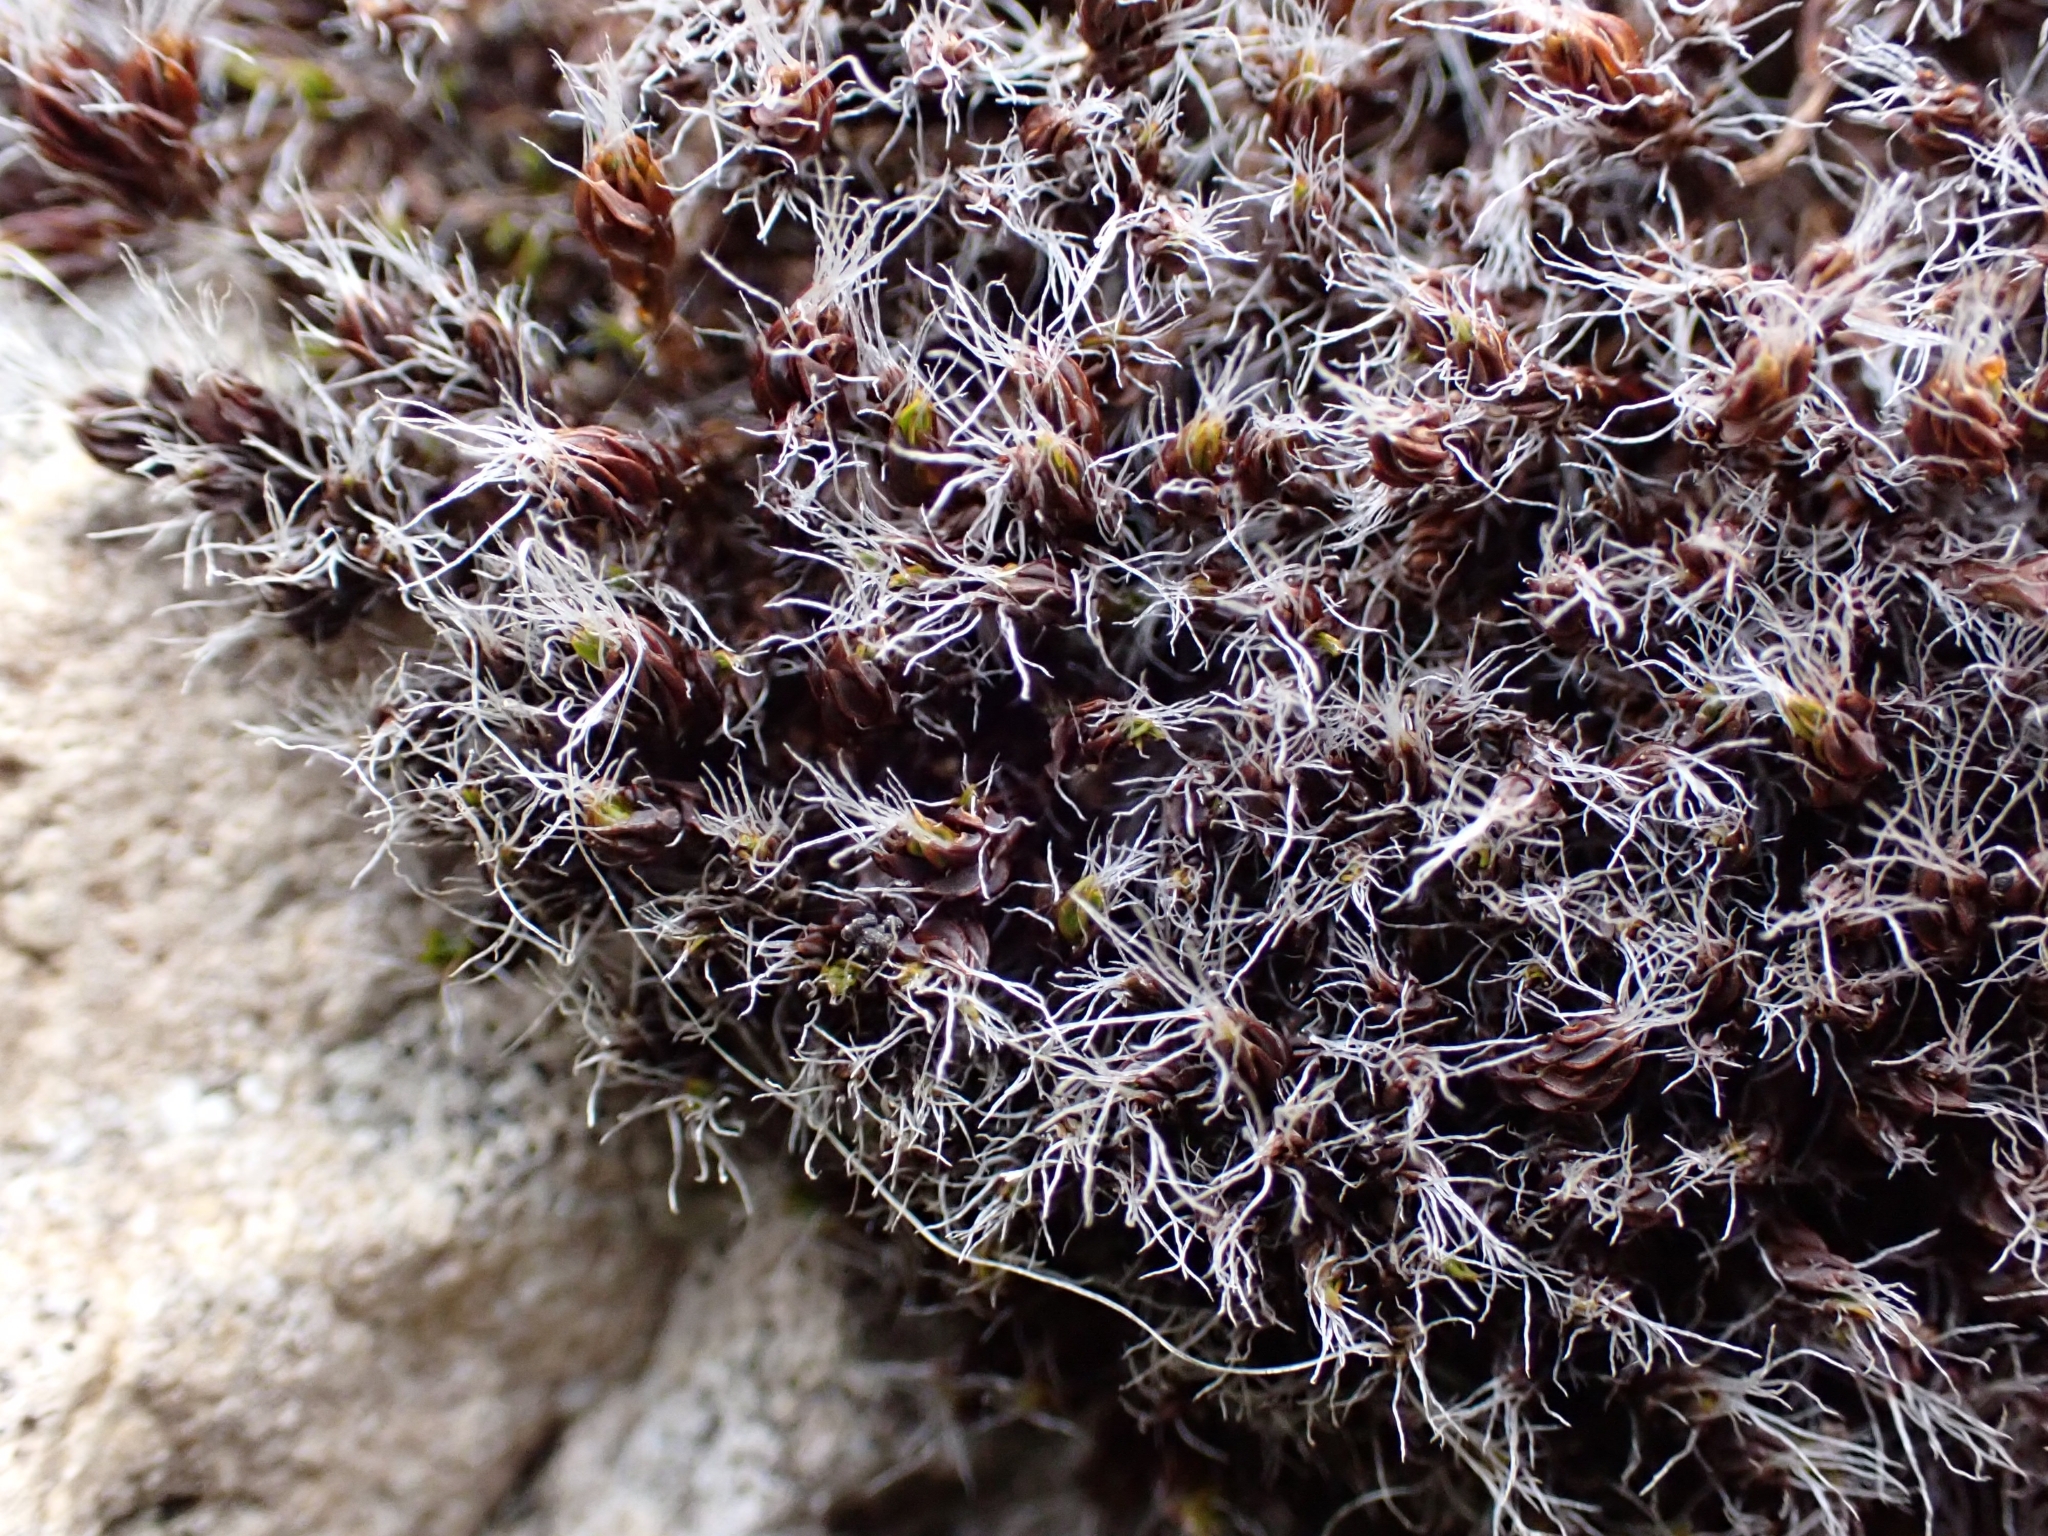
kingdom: Plantae
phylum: Bryophyta
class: Bryopsida
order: Pottiales
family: Pottiaceae
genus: Syntrichia
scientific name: Syntrichia montana
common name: Intermediate screw-moss
